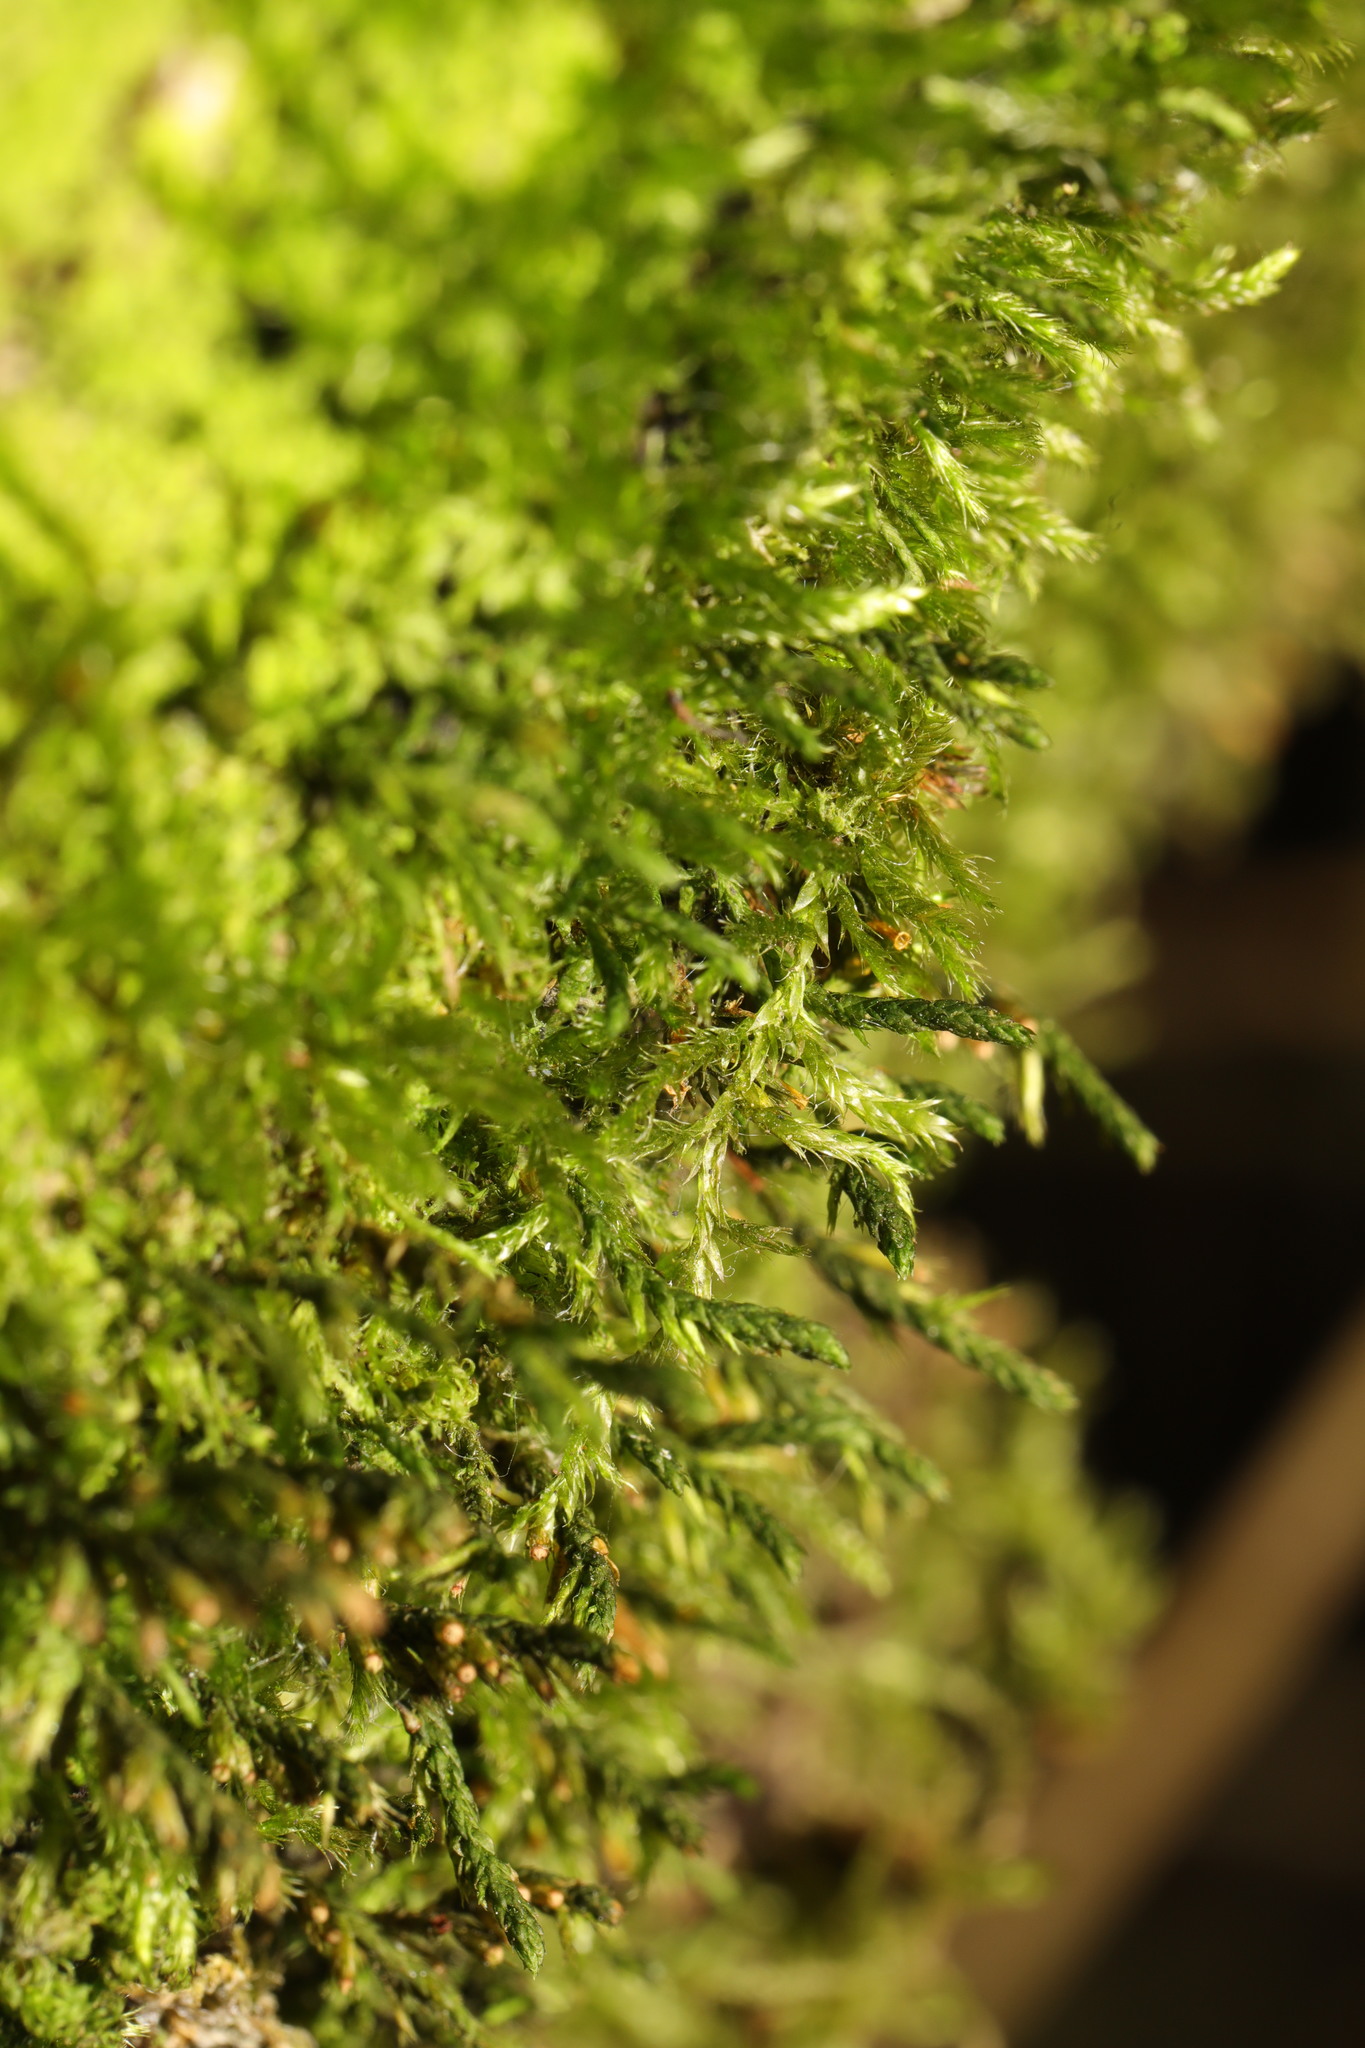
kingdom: Plantae
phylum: Bryophyta
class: Bryopsida
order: Hypnales
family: Cryphaeaceae
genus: Cryphaea
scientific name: Cryphaea heteromalla
